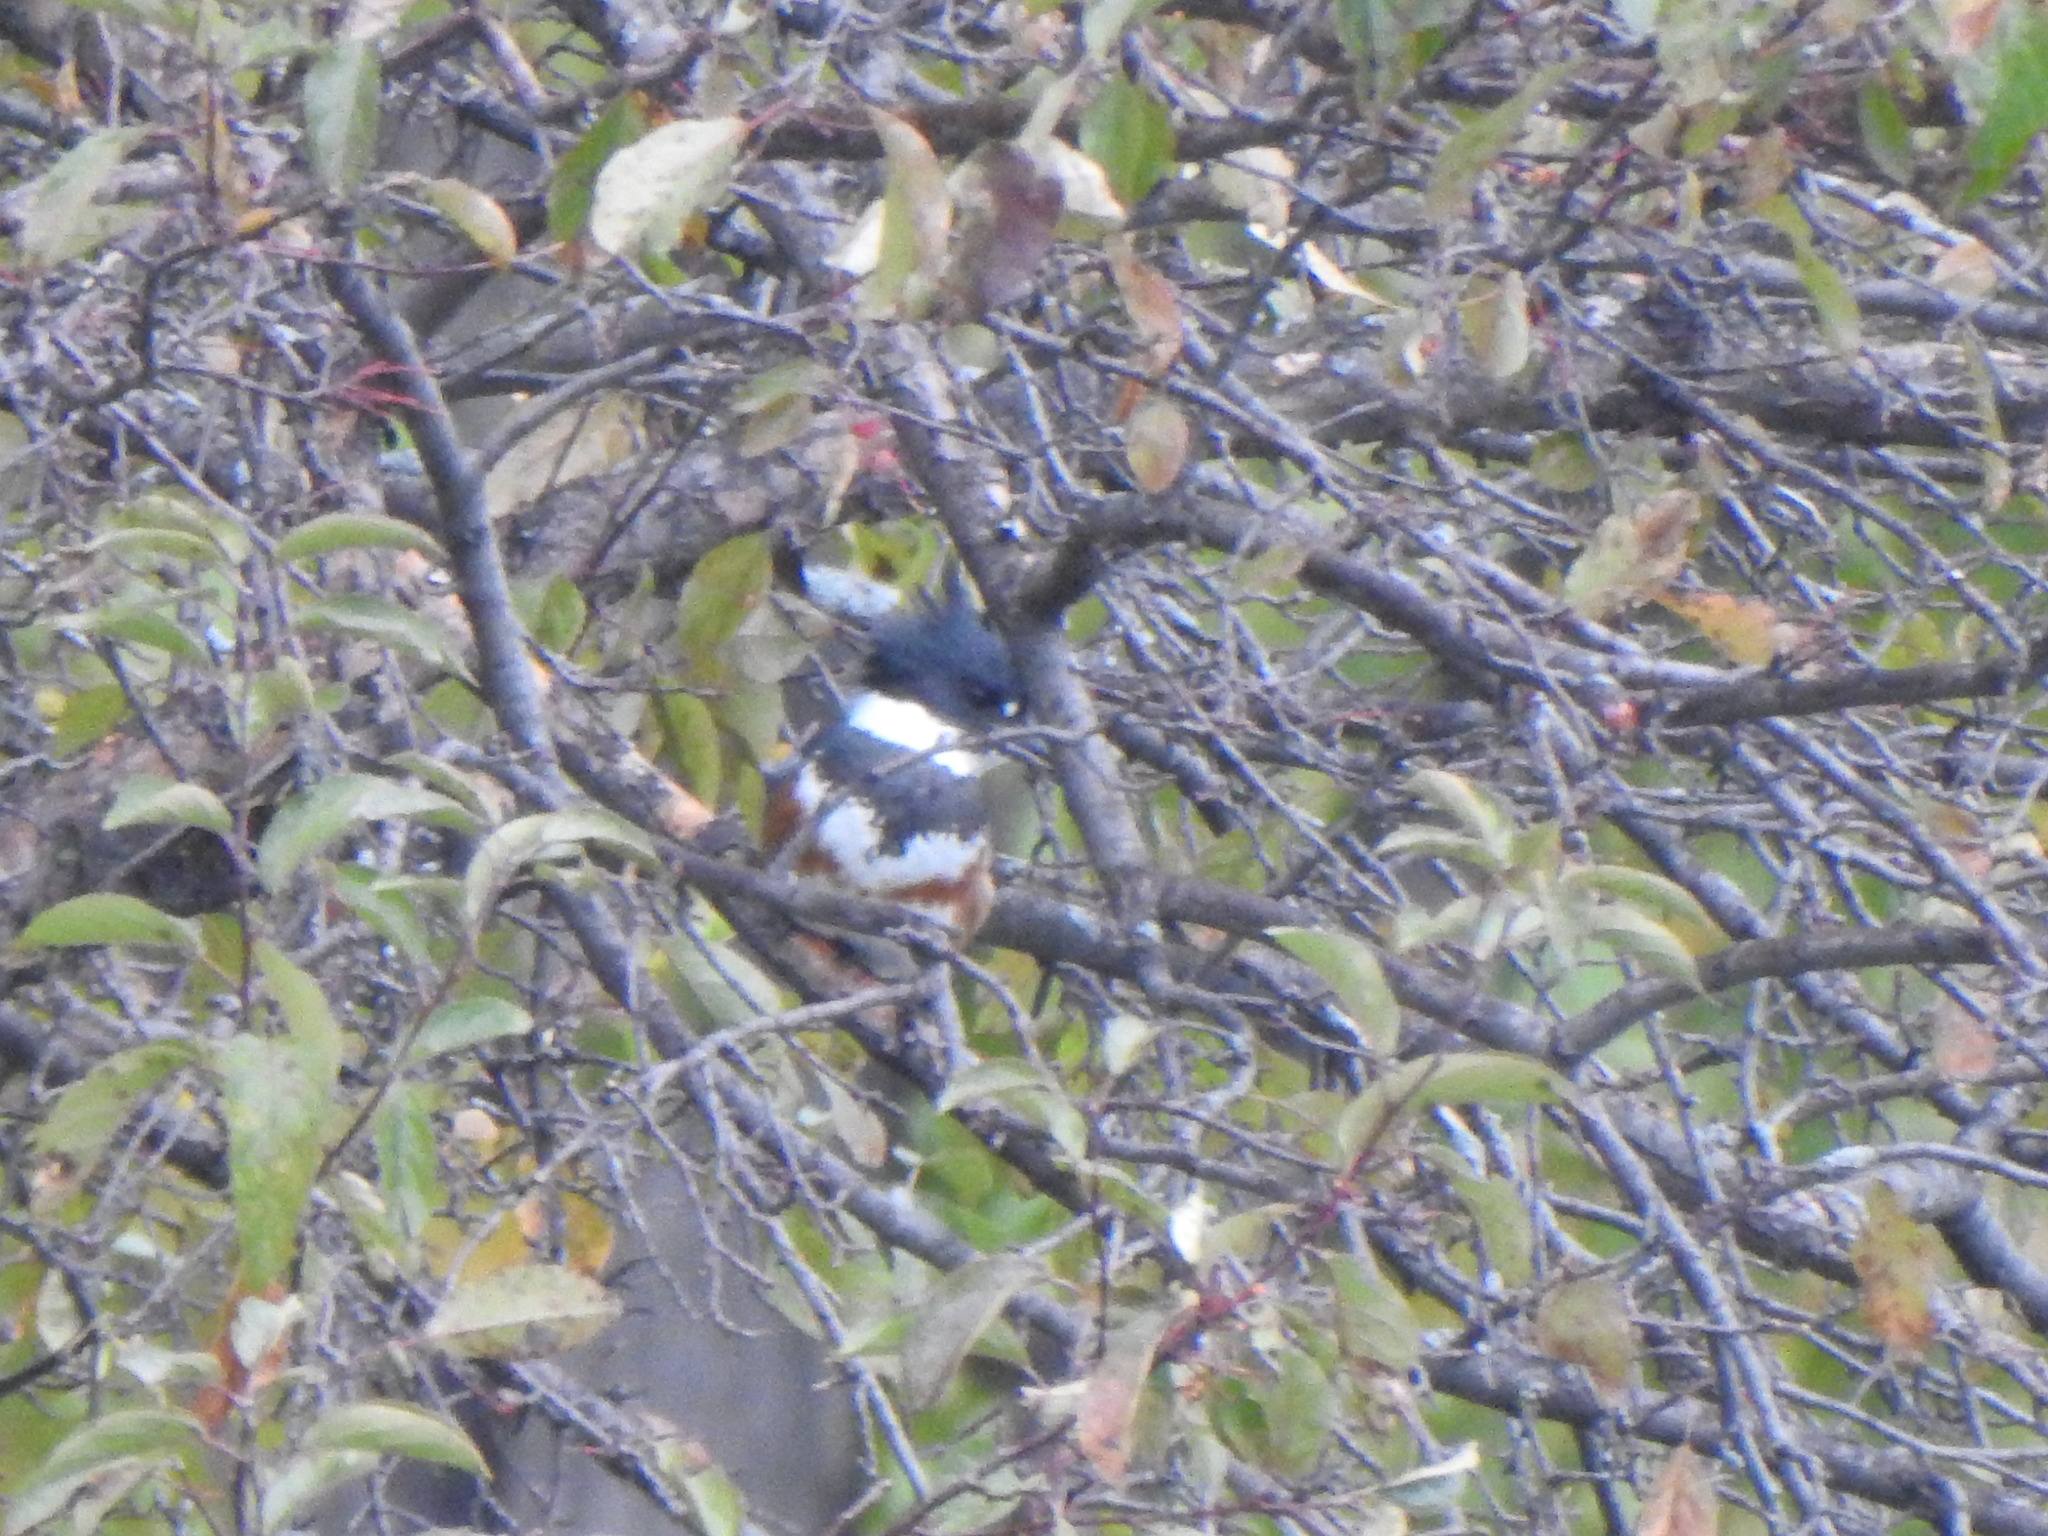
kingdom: Animalia
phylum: Chordata
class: Aves
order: Coraciiformes
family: Alcedinidae
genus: Megaceryle
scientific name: Megaceryle alcyon
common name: Belted kingfisher
